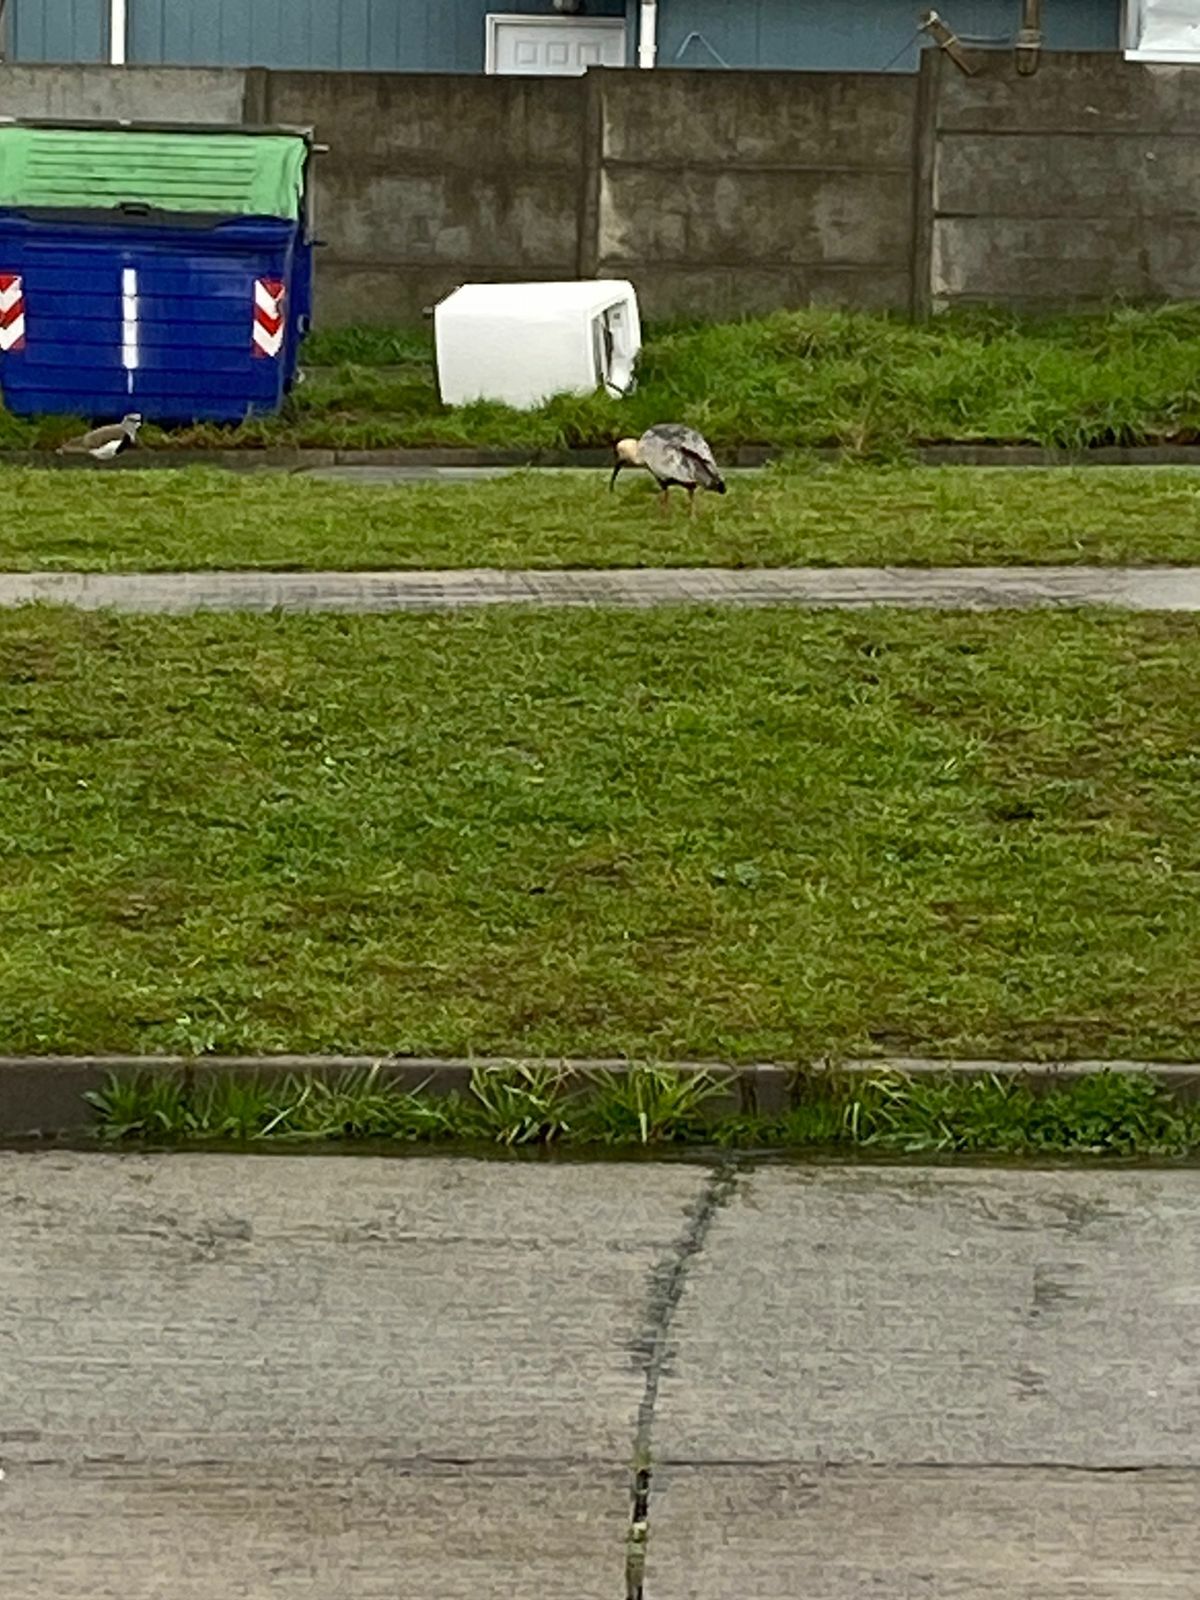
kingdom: Animalia
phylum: Chordata
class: Aves
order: Pelecaniformes
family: Threskiornithidae
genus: Theristicus
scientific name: Theristicus melanopis
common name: Black-faced ibis
